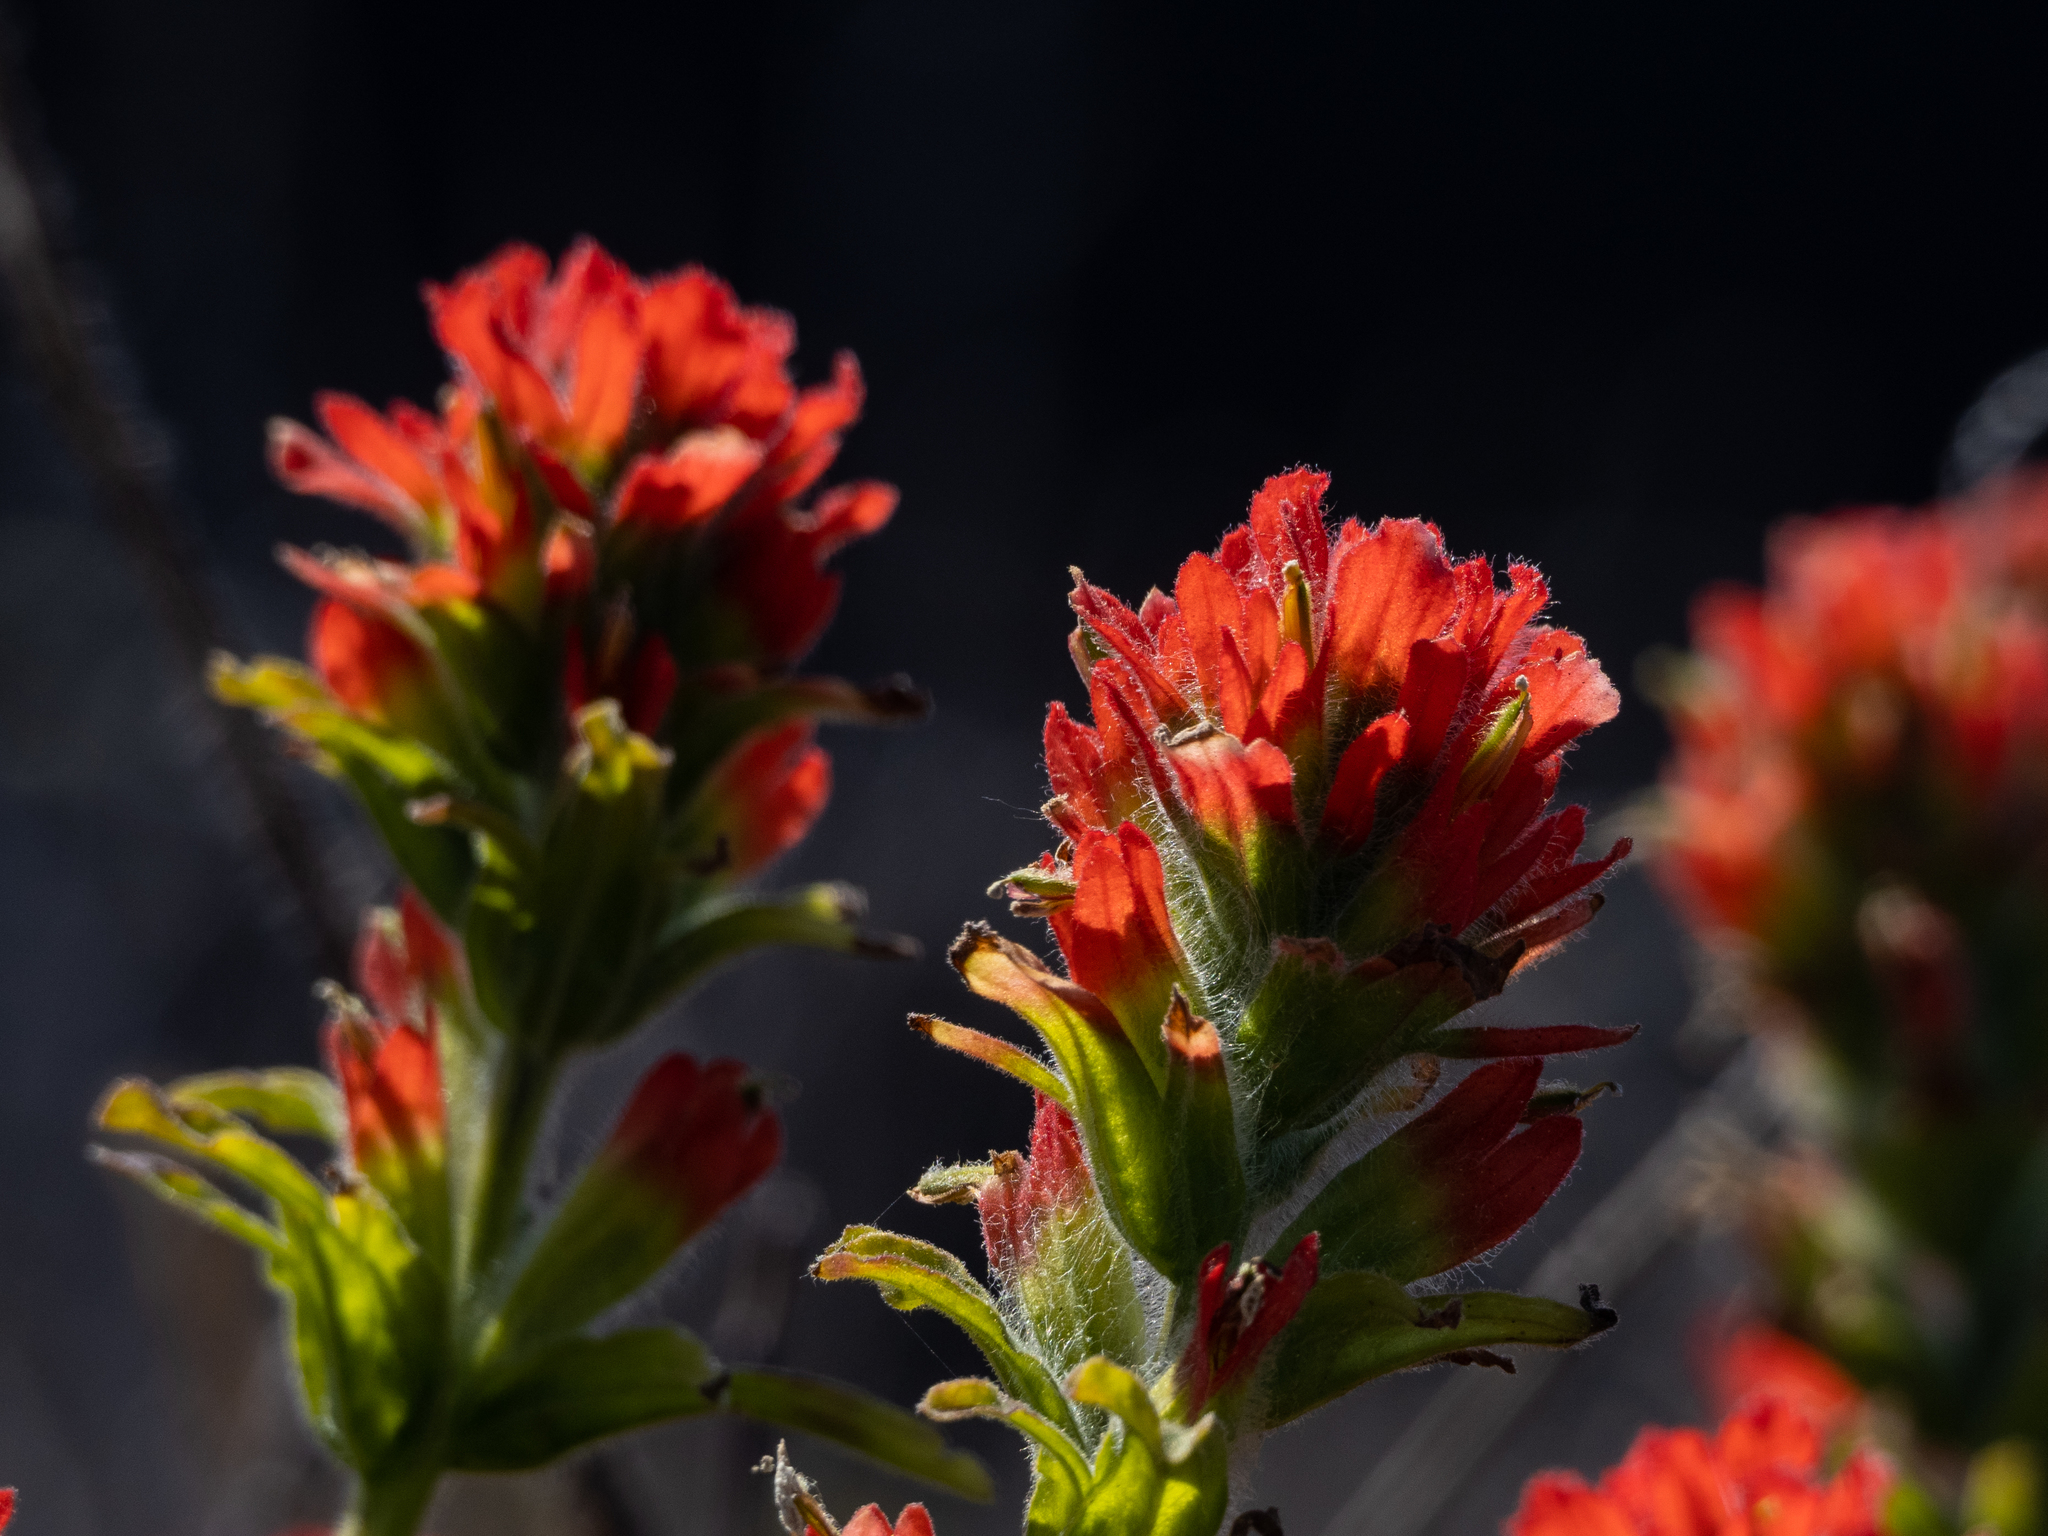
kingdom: Plantae
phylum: Tracheophyta
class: Magnoliopsida
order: Lamiales
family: Orobanchaceae
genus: Castilleja
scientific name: Castilleja wightii
